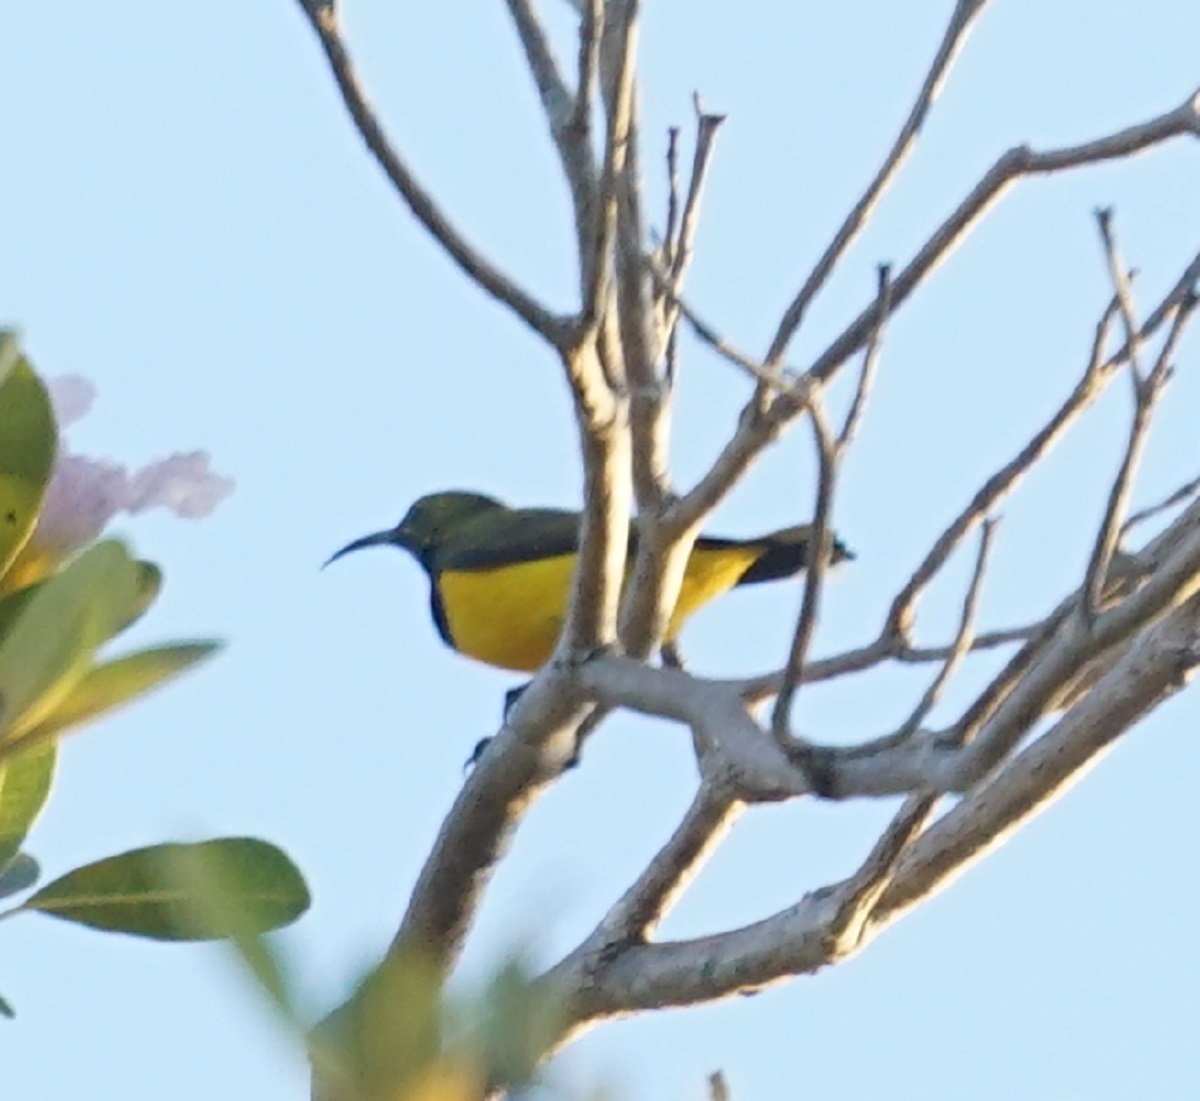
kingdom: Animalia
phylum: Chordata
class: Aves
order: Passeriformes
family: Nectariniidae
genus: Cinnyris
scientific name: Cinnyris
